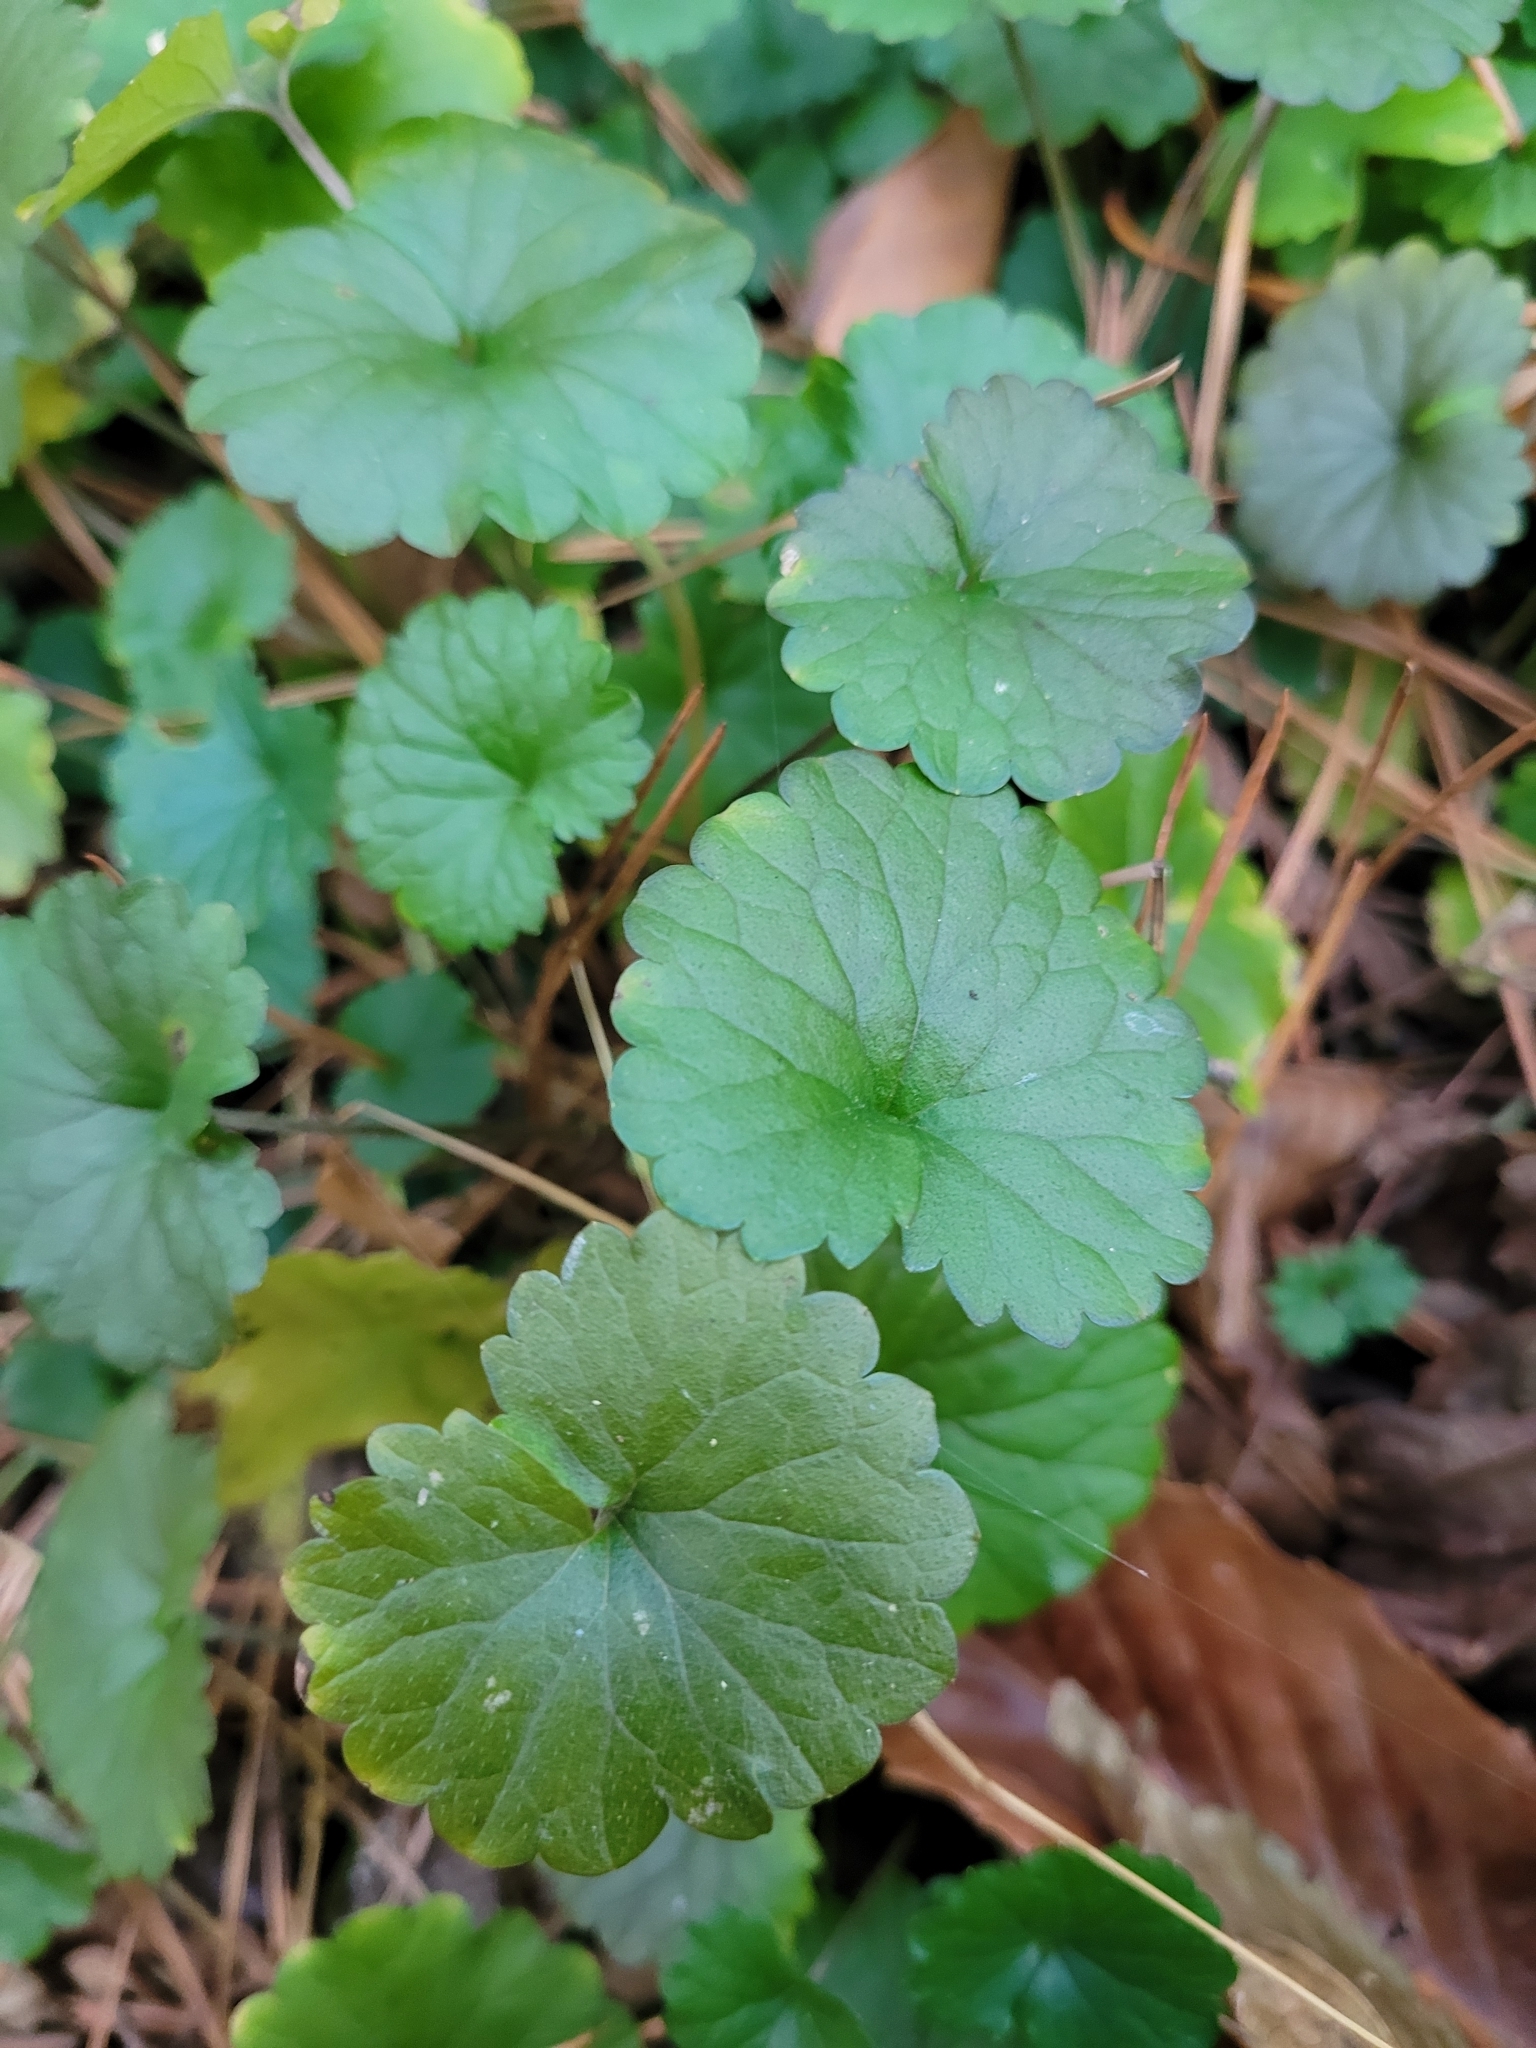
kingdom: Plantae
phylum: Tracheophyta
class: Magnoliopsida
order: Lamiales
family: Lamiaceae
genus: Glechoma
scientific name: Glechoma hederacea
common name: Ground ivy
